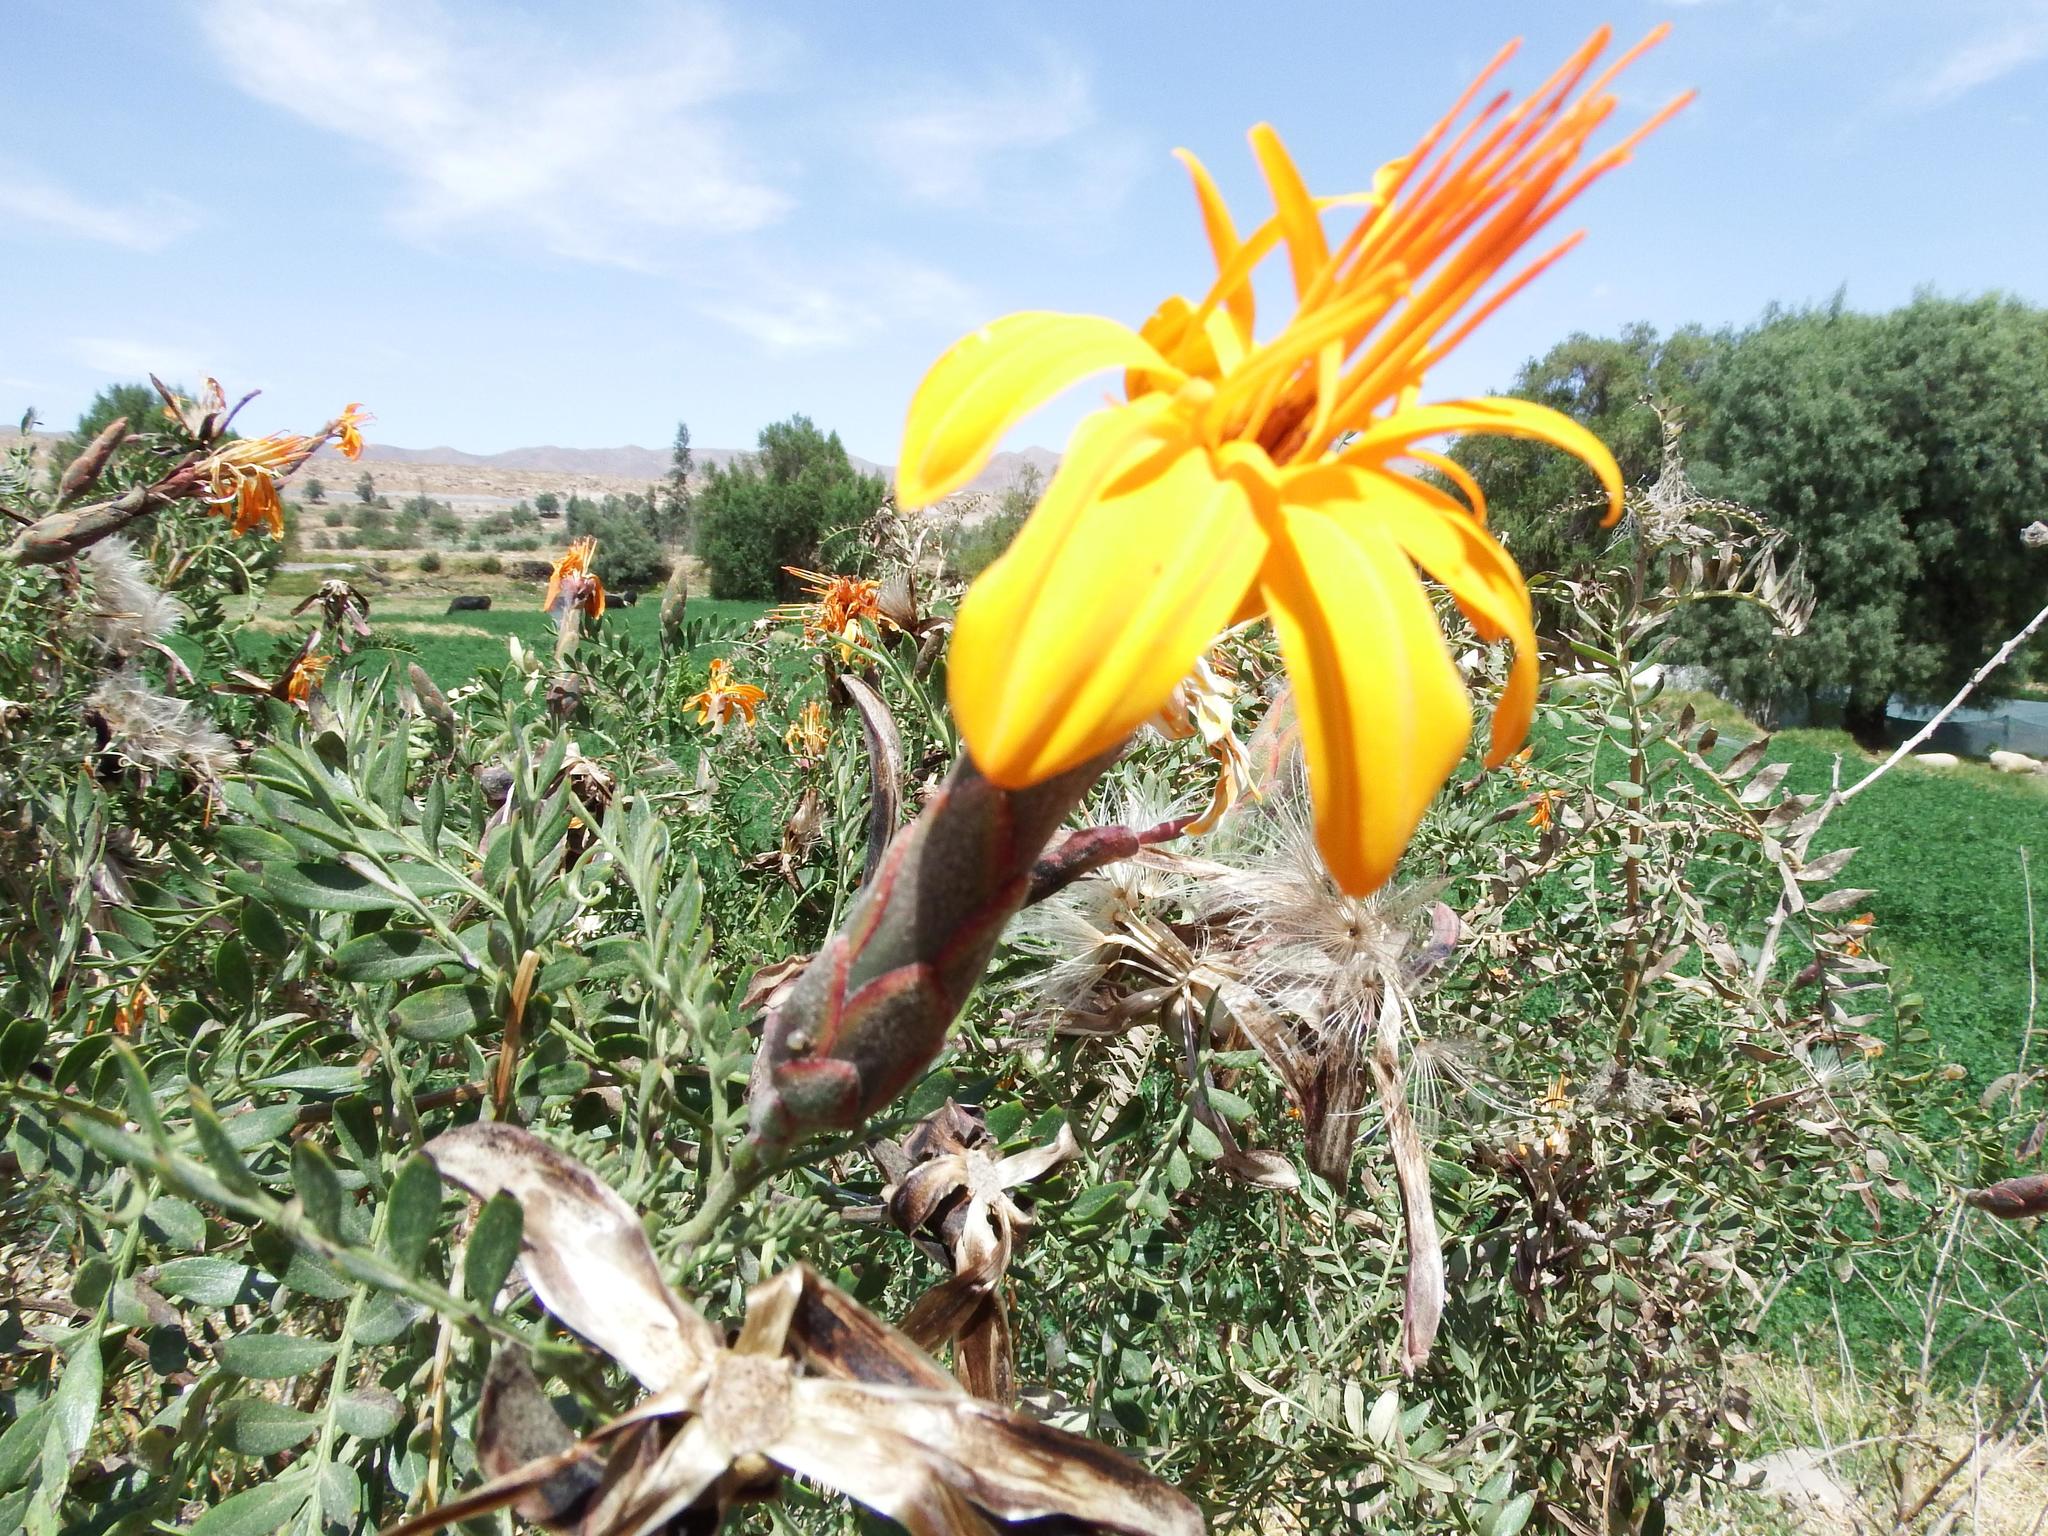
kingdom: Plantae
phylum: Tracheophyta
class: Magnoliopsida
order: Asterales
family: Asteraceae
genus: Mutisia
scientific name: Mutisia acuminata
